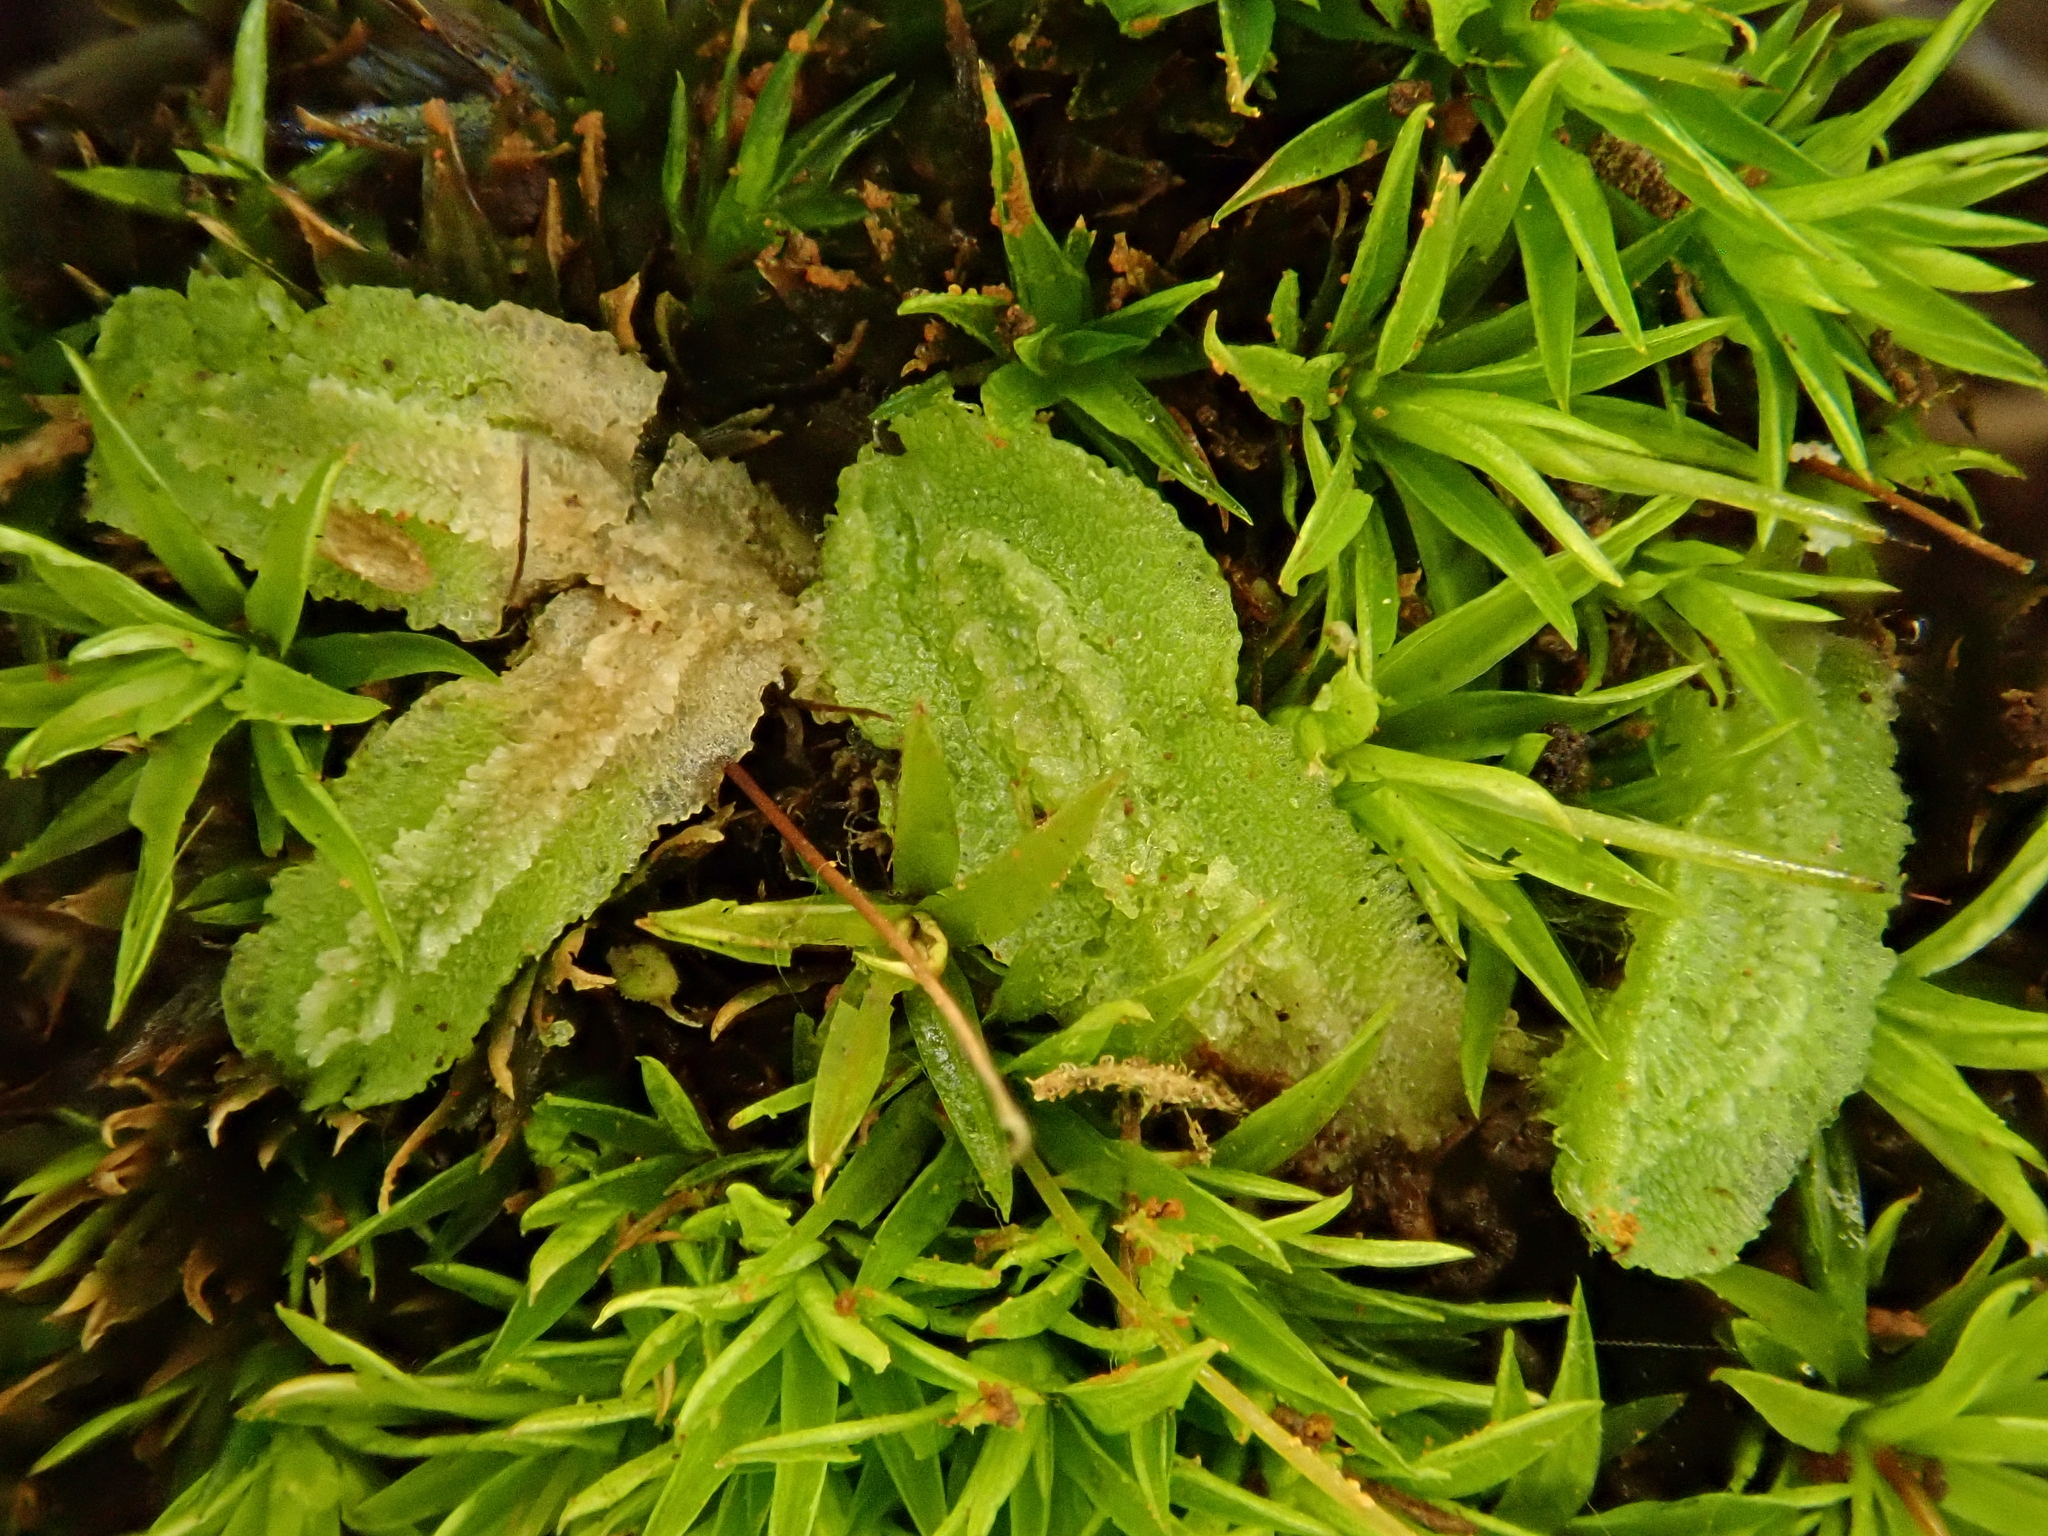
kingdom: Plantae
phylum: Marchantiophyta
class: Marchantiopsida
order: Marchantiales
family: Corsiniaceae
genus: Corsinia
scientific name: Corsinia coriandrina
